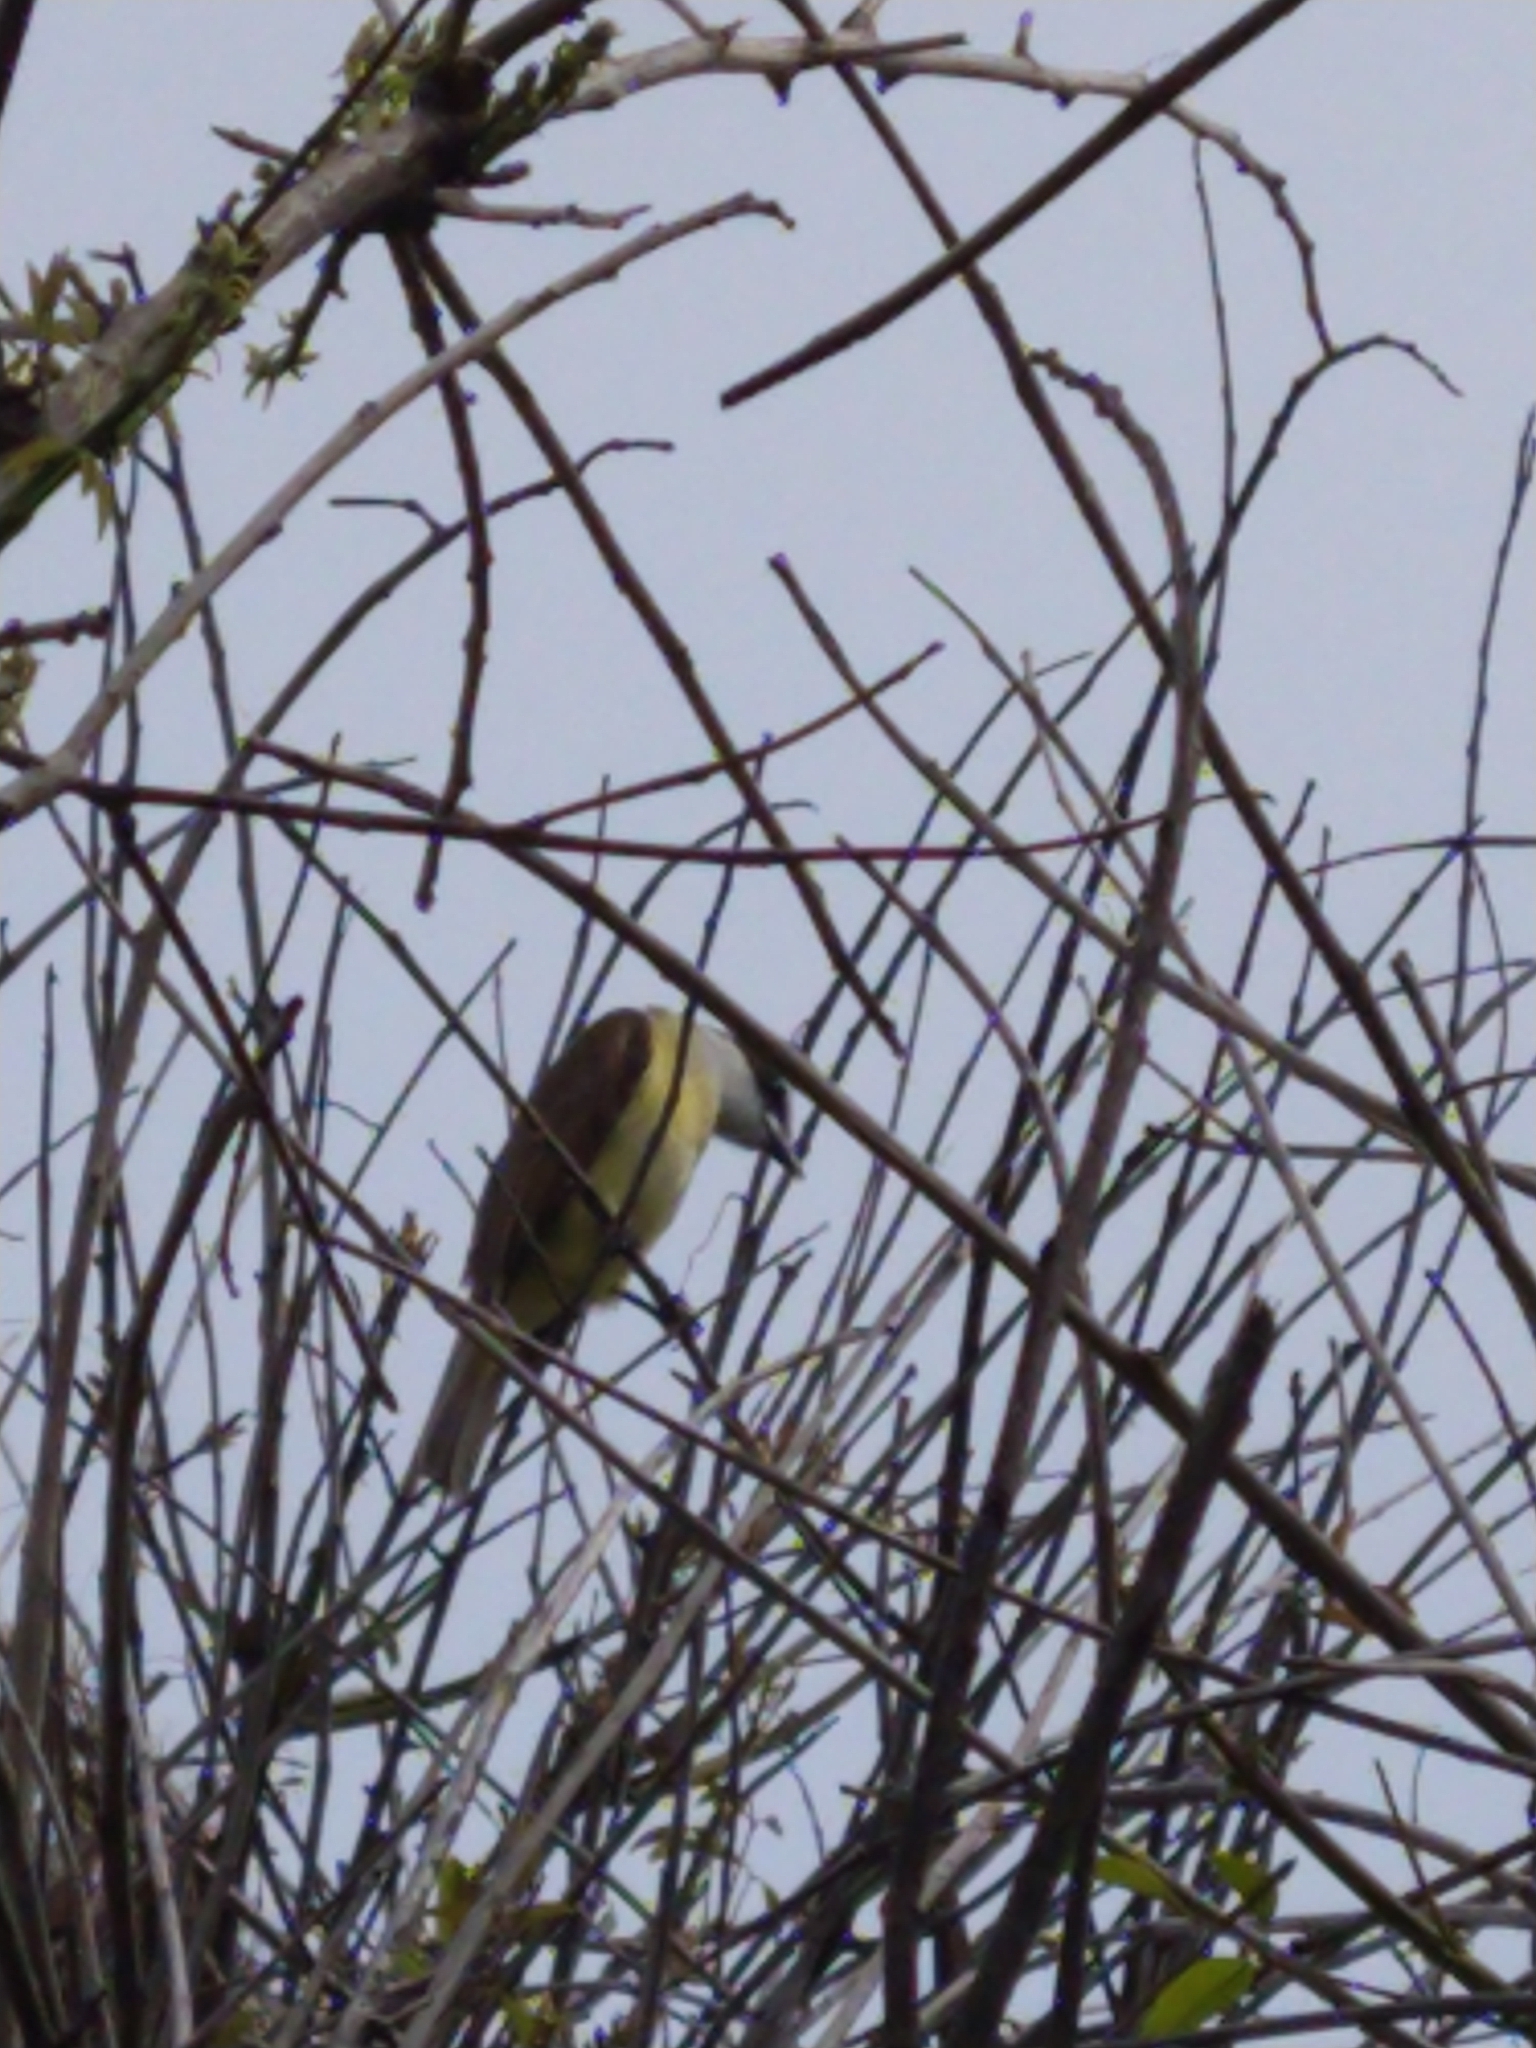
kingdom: Animalia
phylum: Chordata
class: Aves
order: Passeriformes
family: Tyrannidae
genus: Pitangus
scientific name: Pitangus sulphuratus
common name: Great kiskadee
